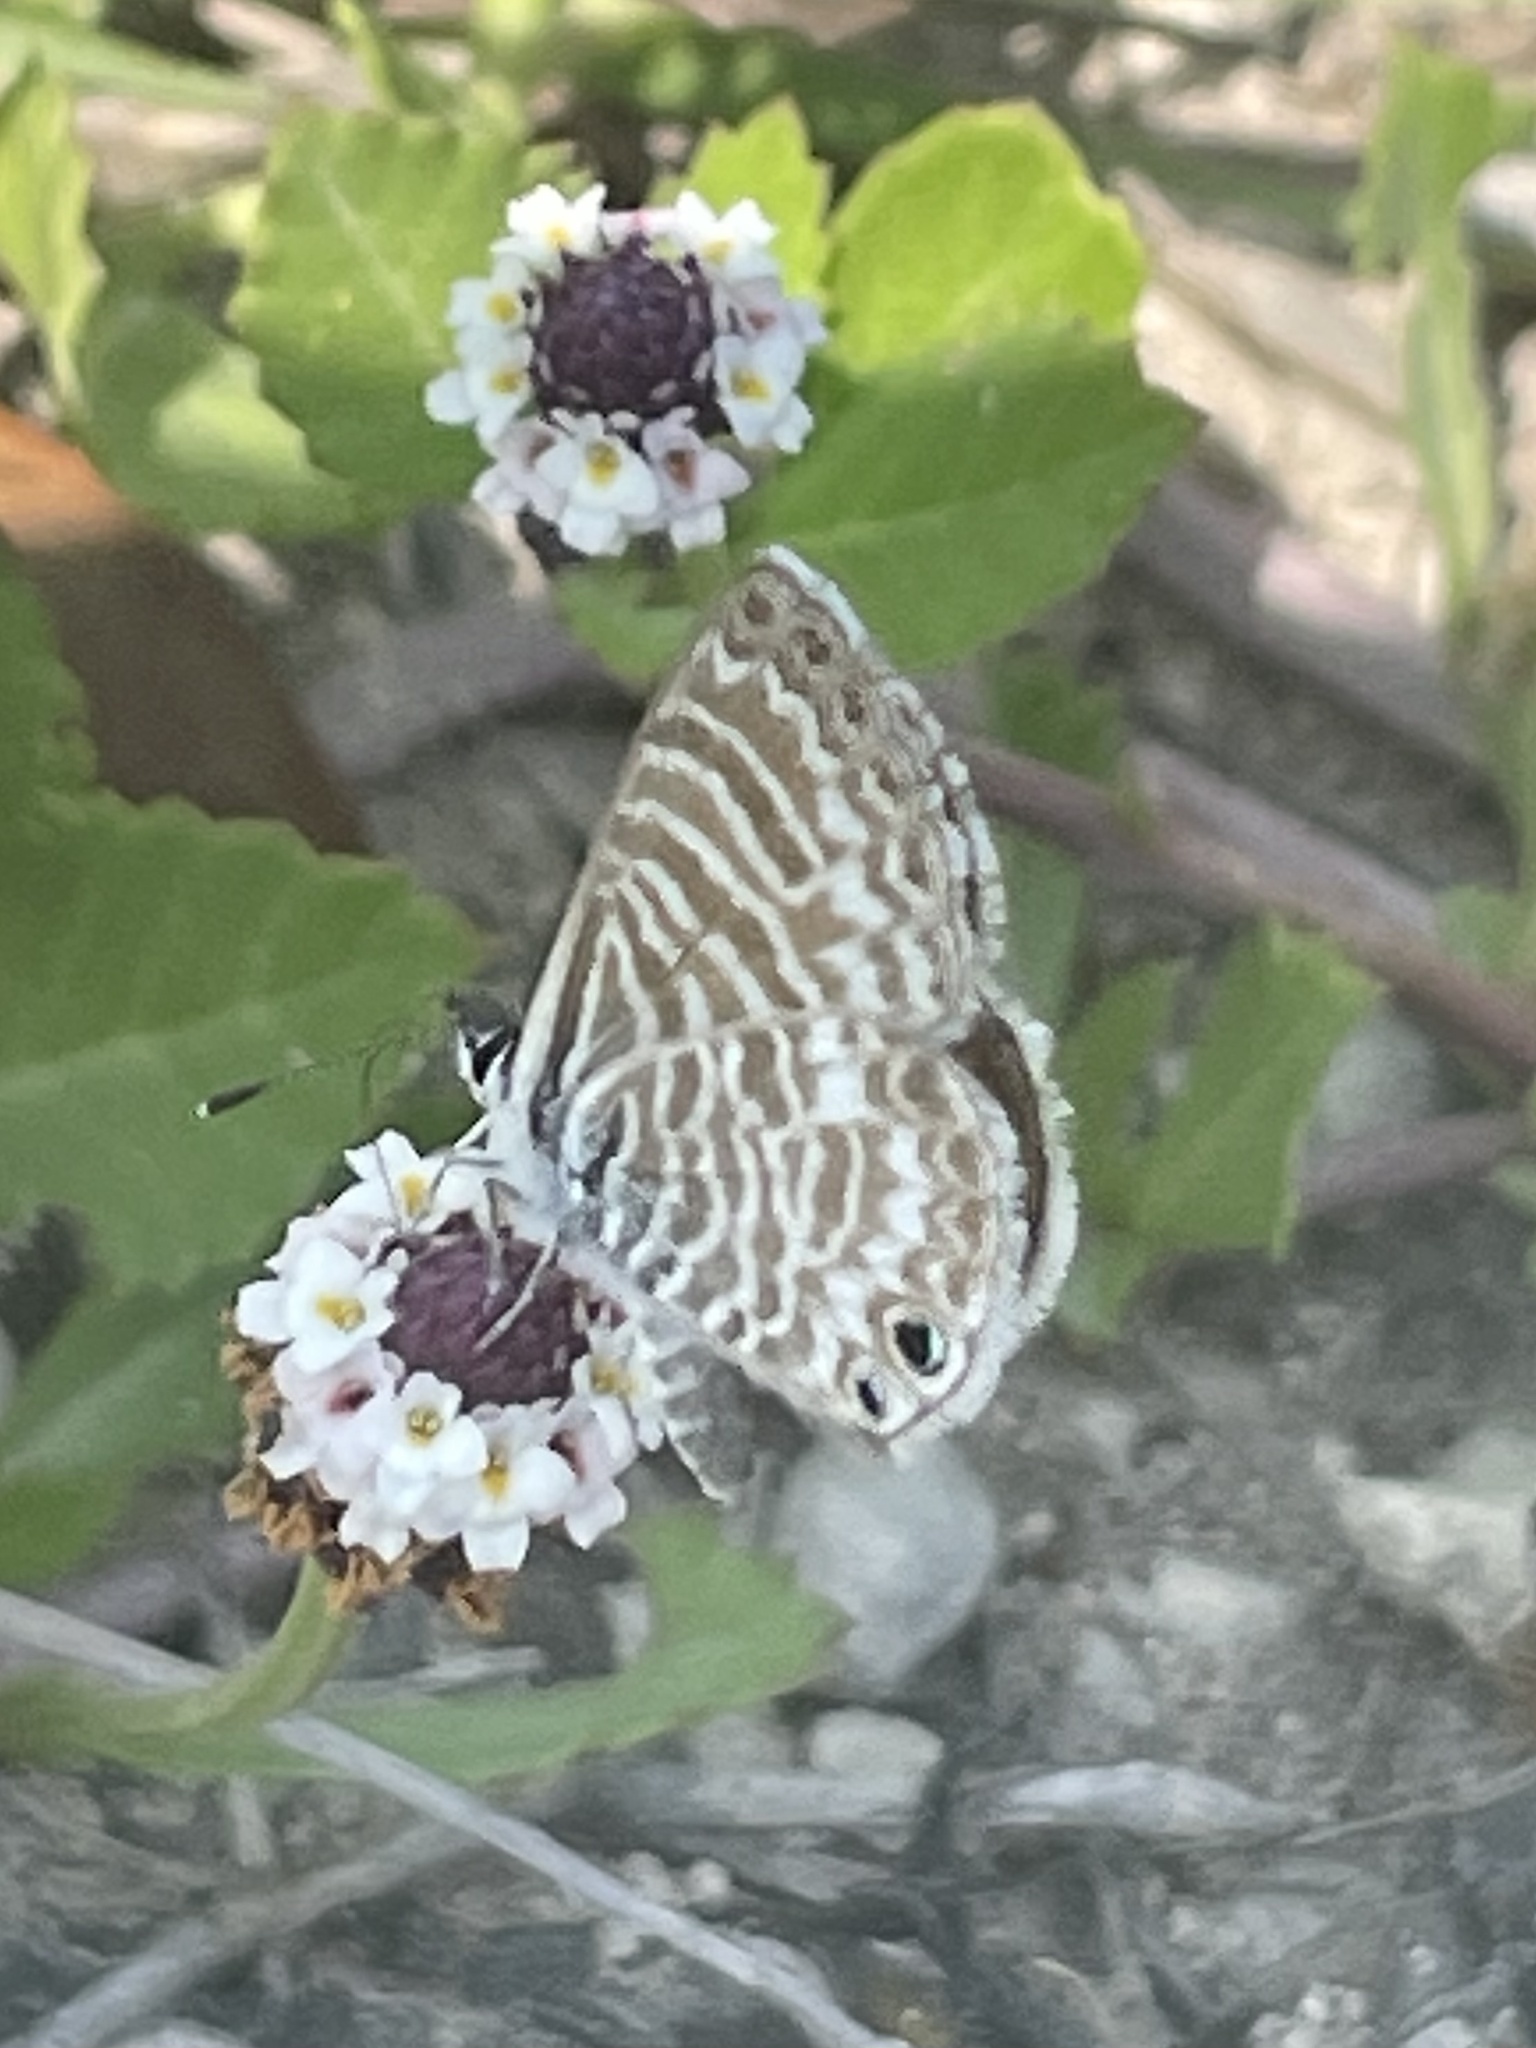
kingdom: Animalia
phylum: Arthropoda
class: Insecta
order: Lepidoptera
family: Lycaenidae
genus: Leptotes
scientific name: Leptotes marina
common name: Marine blue
